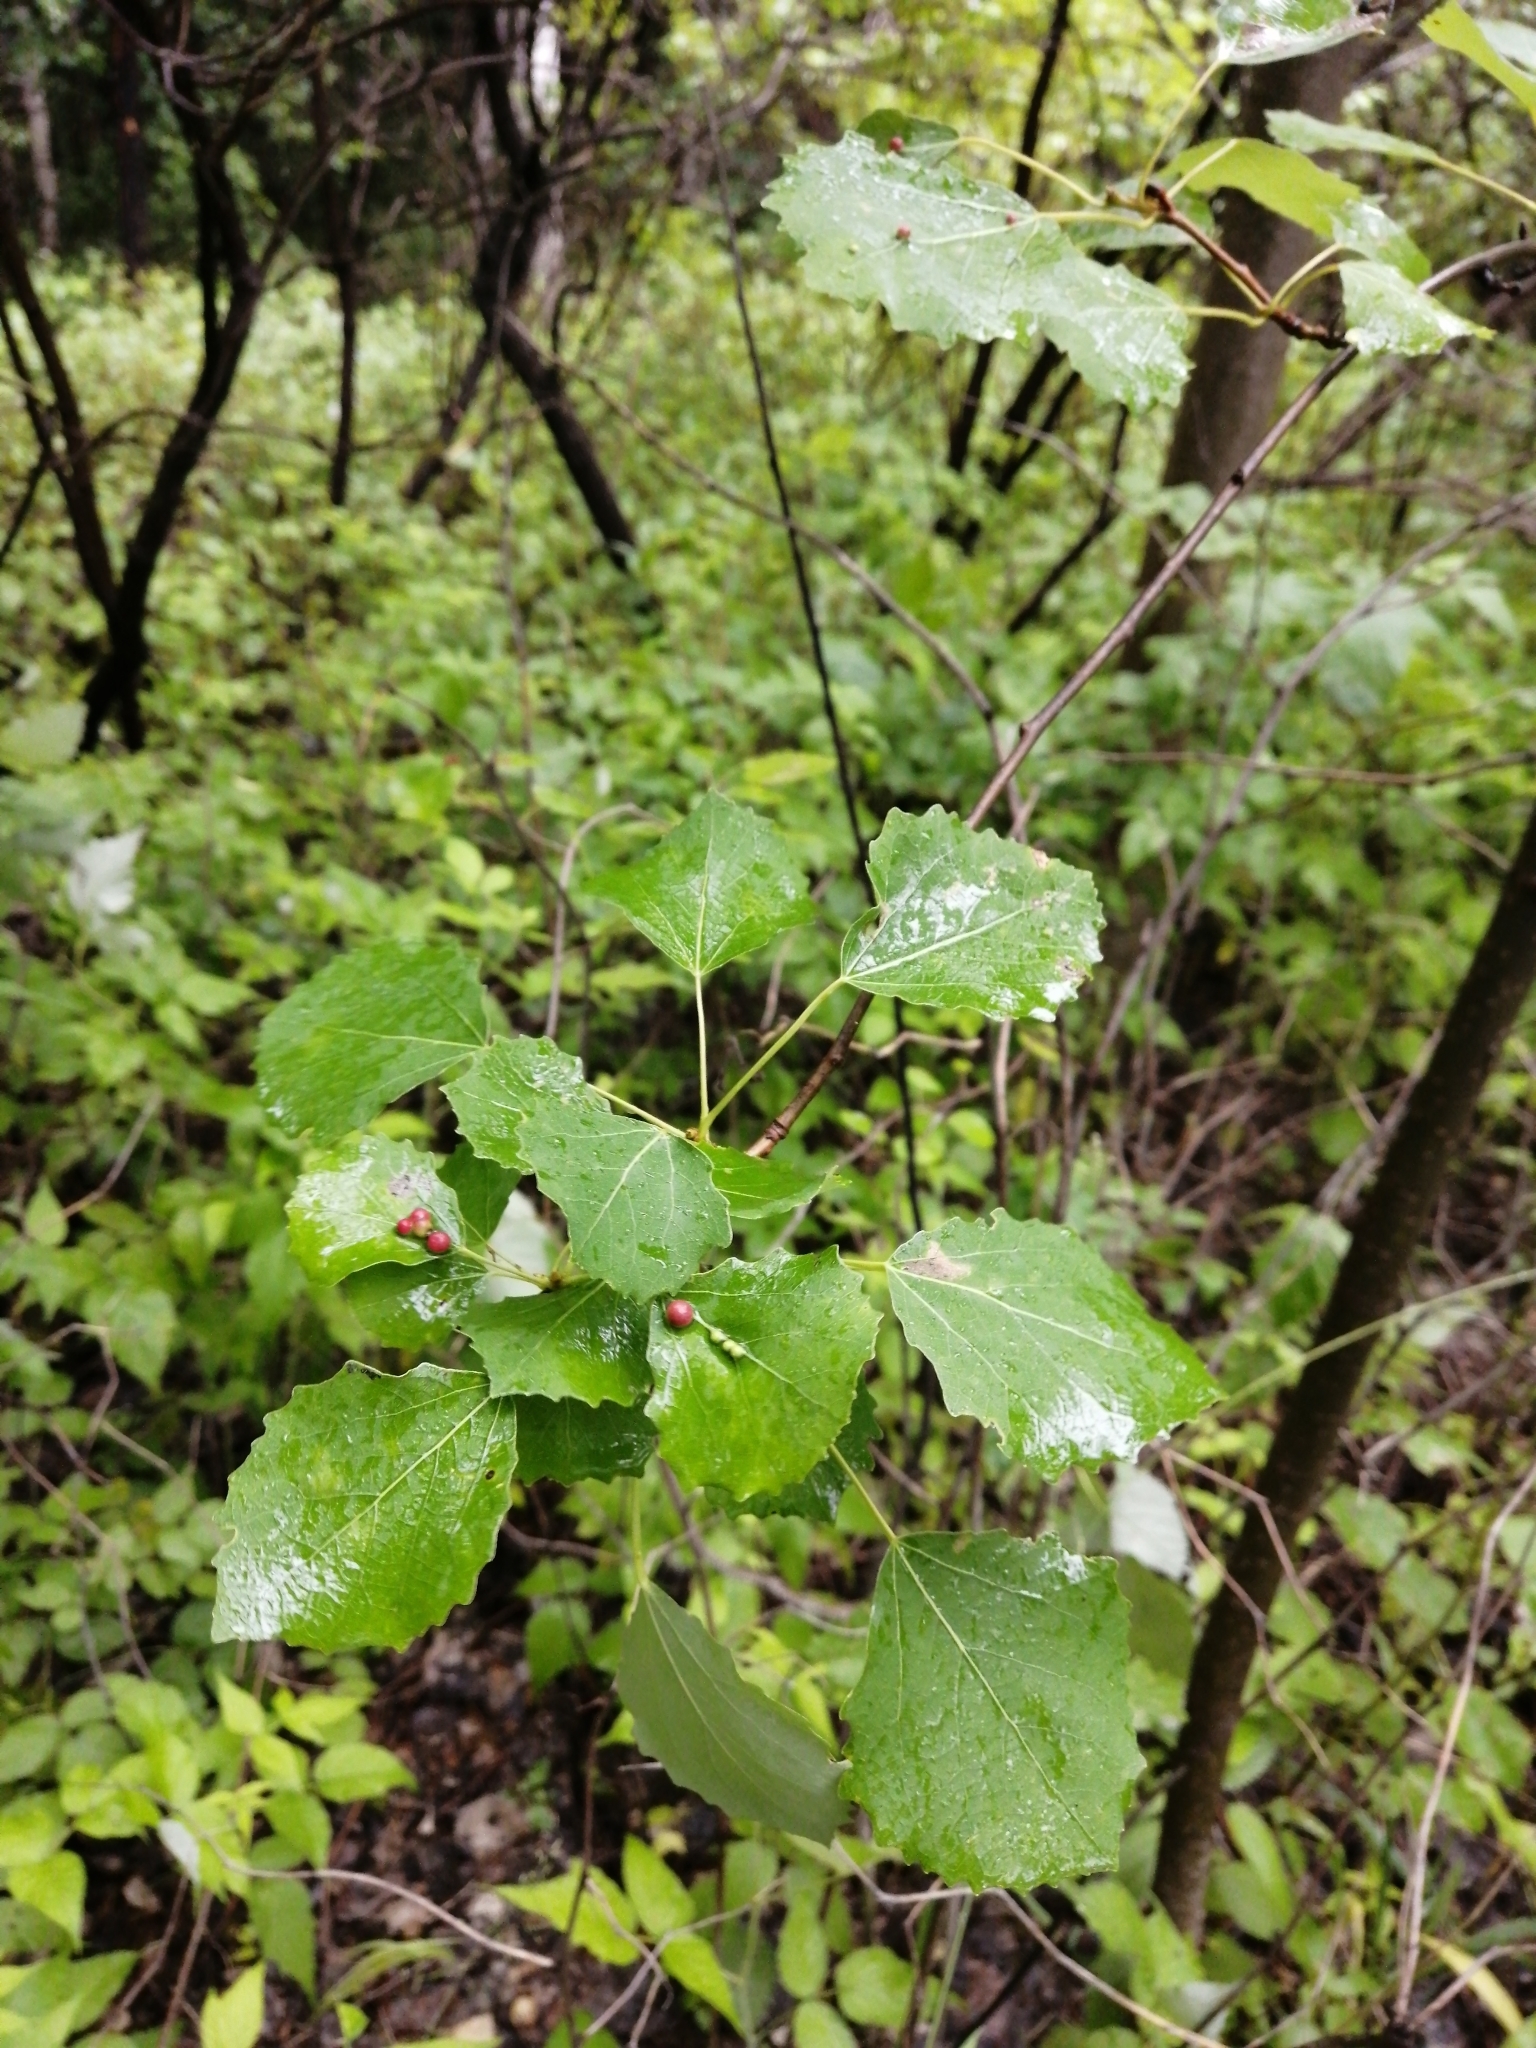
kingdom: Plantae
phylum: Tracheophyta
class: Magnoliopsida
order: Malpighiales
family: Salicaceae
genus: Populus
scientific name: Populus tremula
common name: European aspen
